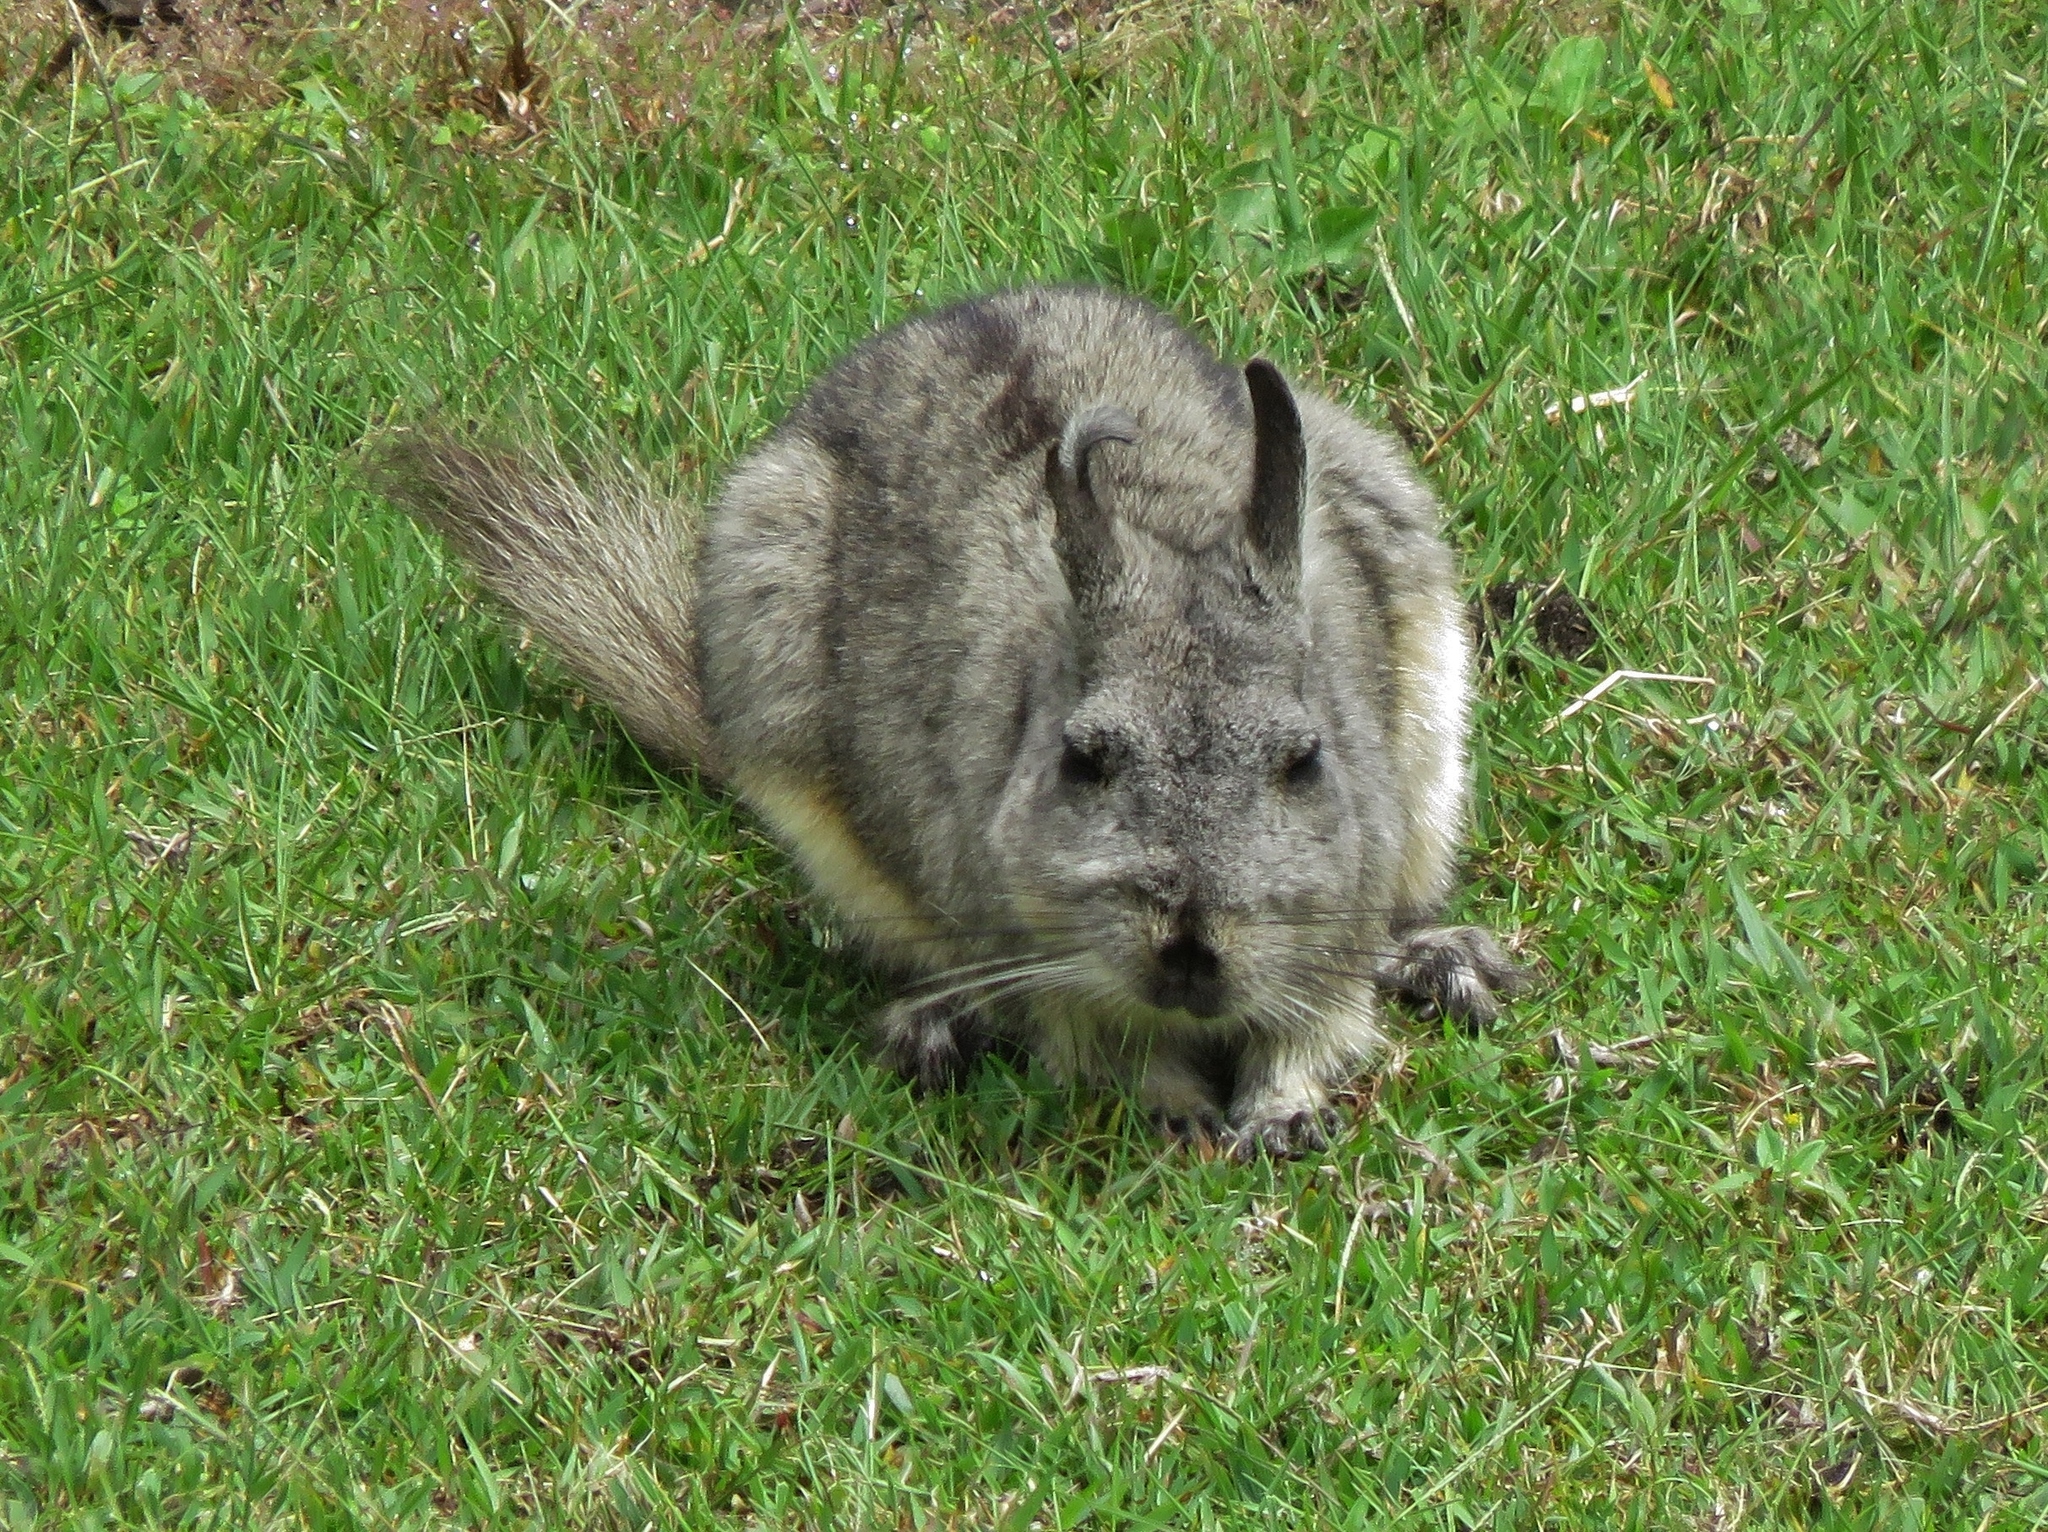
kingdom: Animalia
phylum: Chordata
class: Mammalia
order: Rodentia
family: Chinchillidae
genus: Lagidium
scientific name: Lagidium viscacia
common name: Southern viscacha
